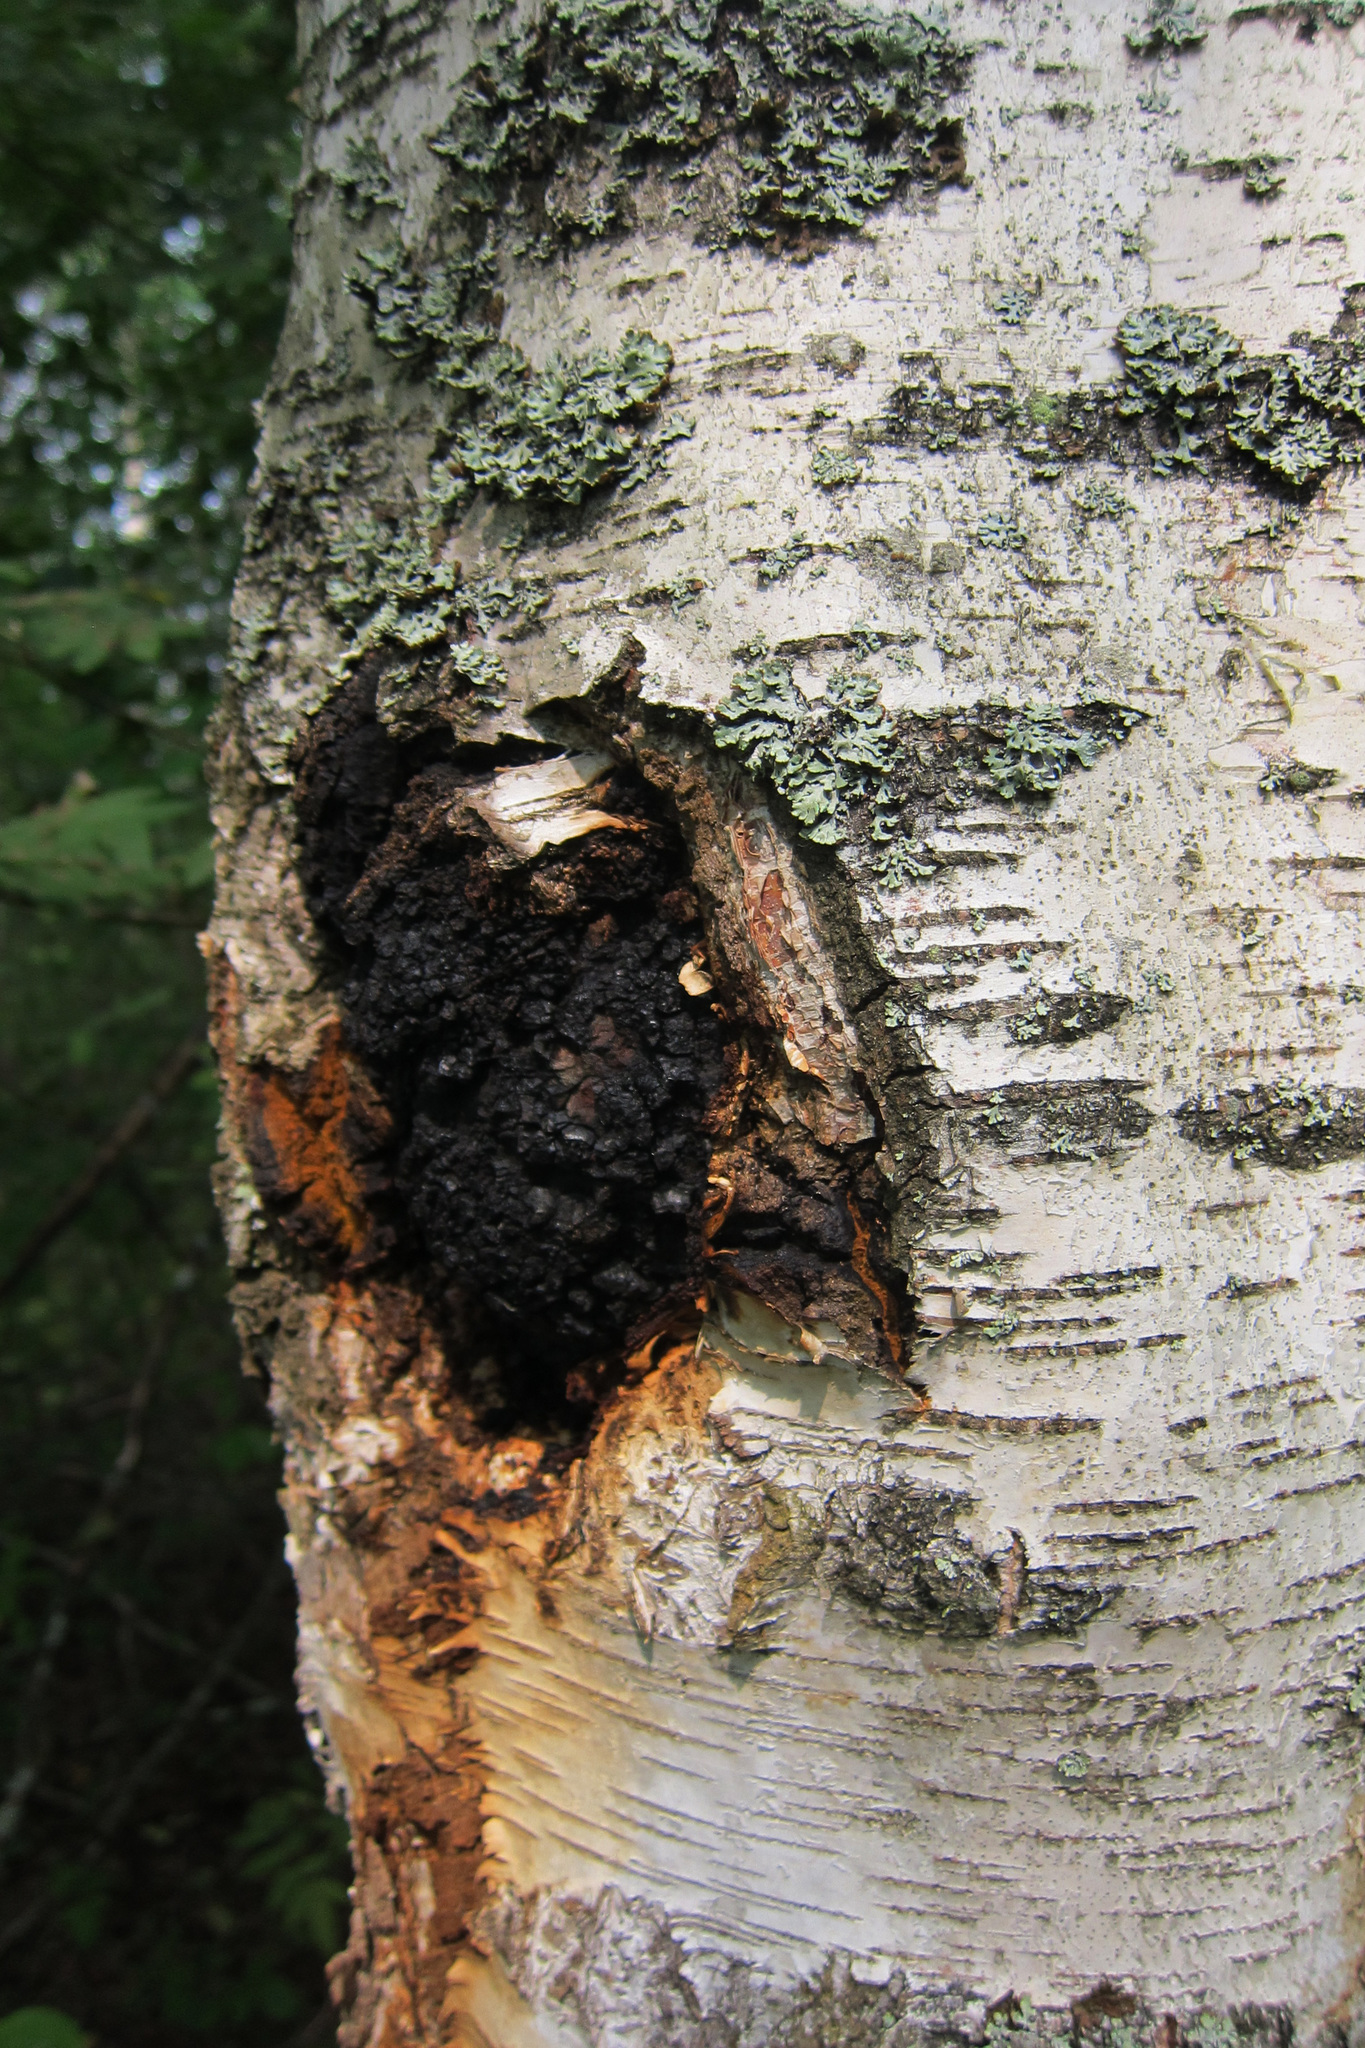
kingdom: Fungi
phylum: Basidiomycota
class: Agaricomycetes
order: Hymenochaetales
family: Hymenochaetaceae
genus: Inonotus
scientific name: Inonotus obliquus
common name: Chaga
